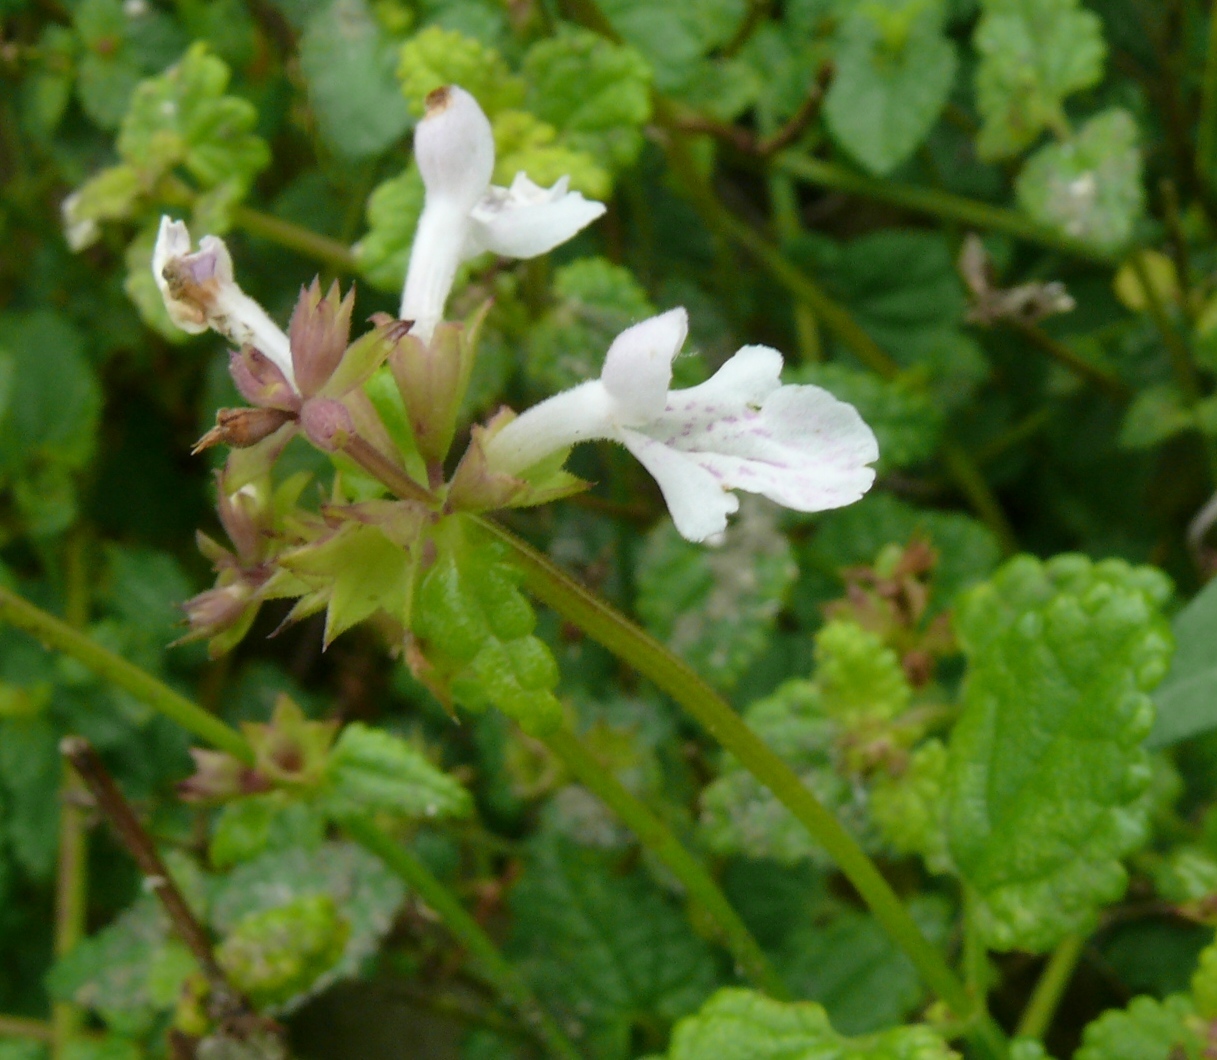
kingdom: Plantae
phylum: Tracheophyta
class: Magnoliopsida
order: Lamiales
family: Lamiaceae
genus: Stachys
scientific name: Stachys aethiopica
